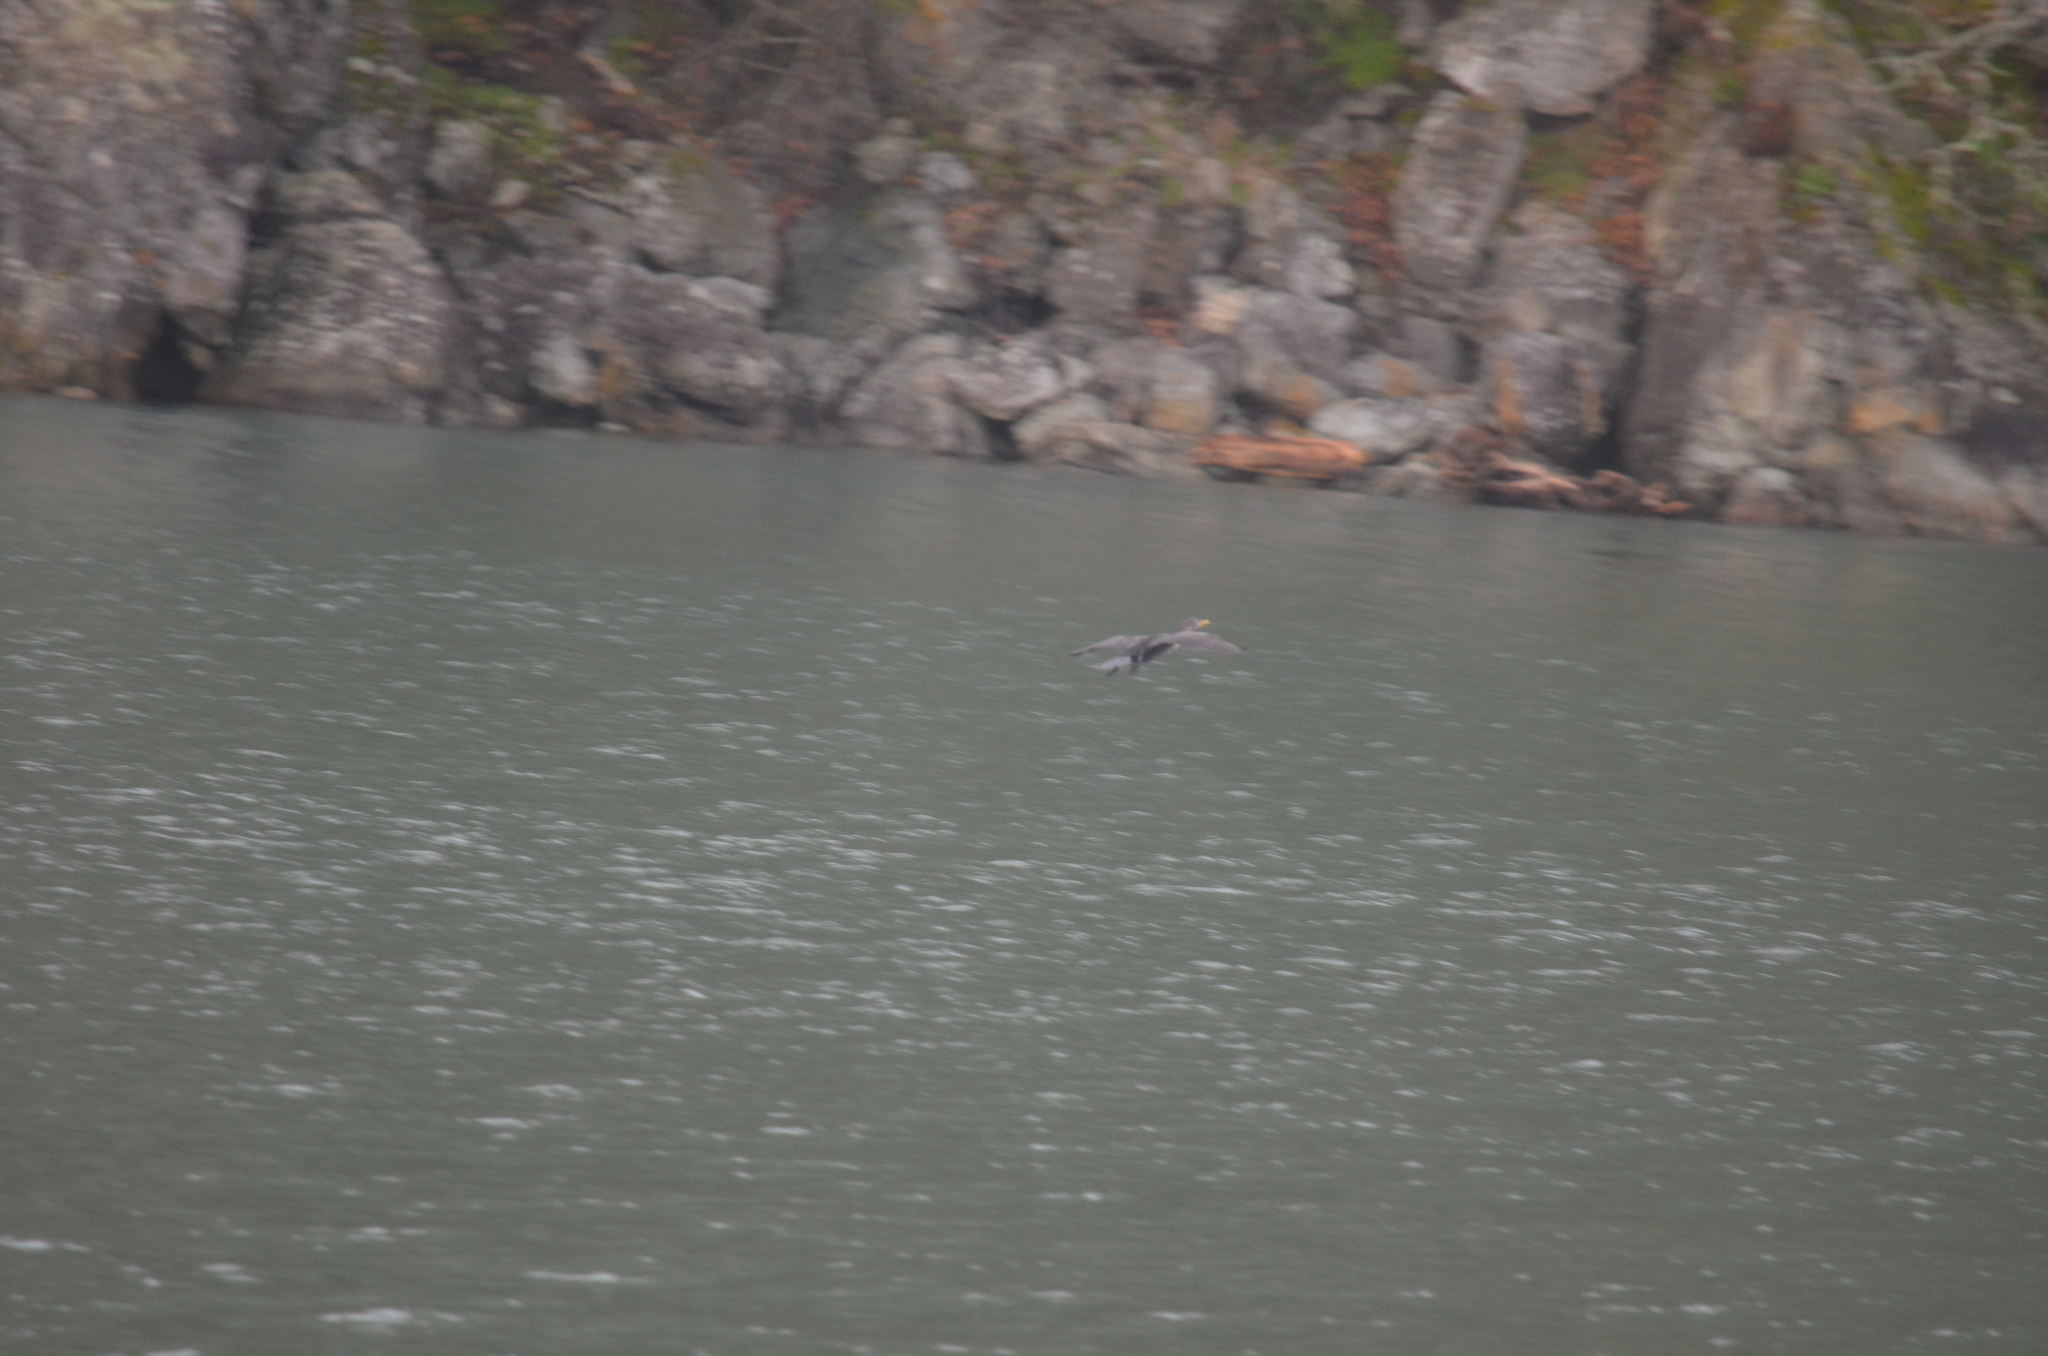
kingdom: Animalia
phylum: Chordata
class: Aves
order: Suliformes
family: Phalacrocoracidae
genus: Phalacrocorax
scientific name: Phalacrocorax auritus
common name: Double-crested cormorant
